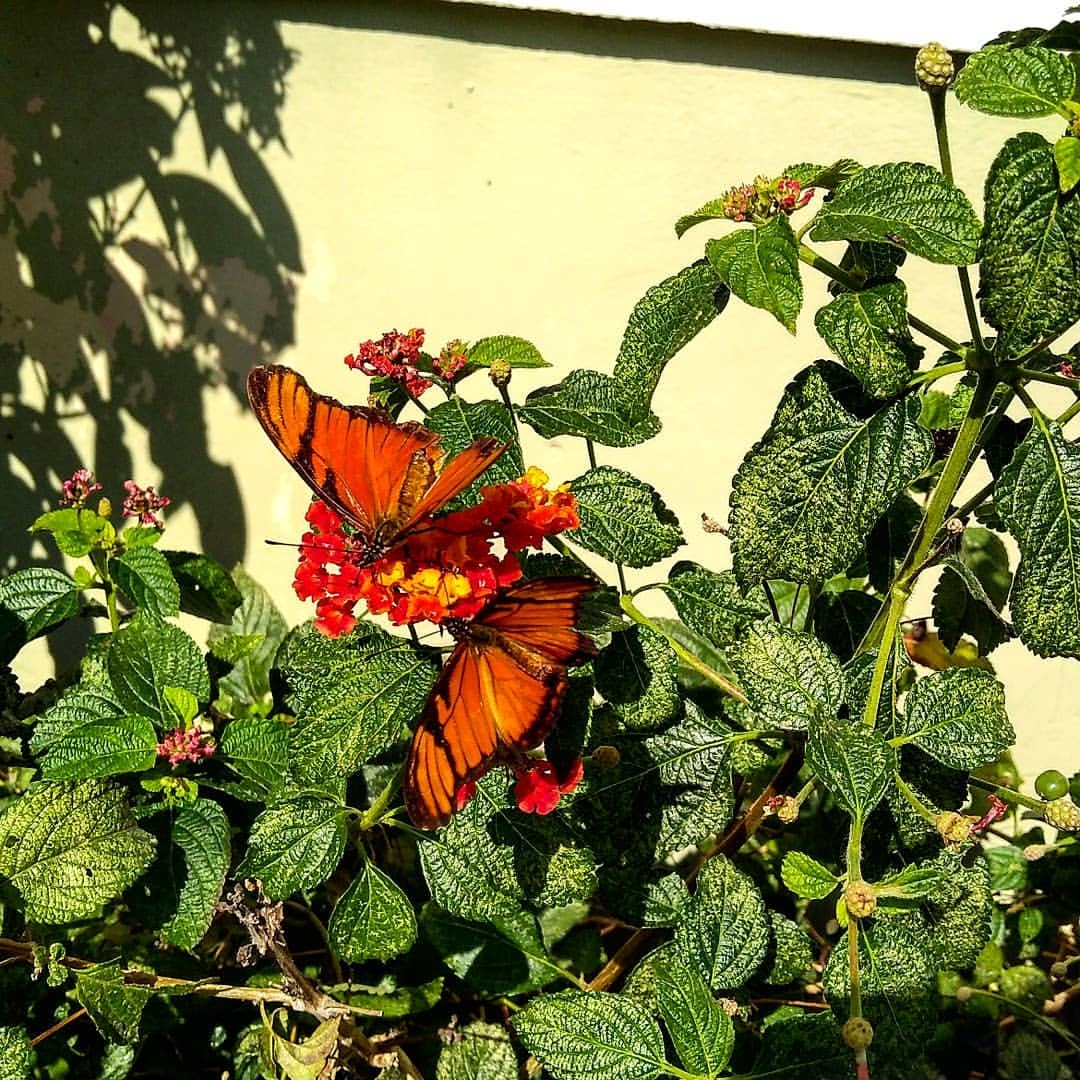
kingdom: Animalia
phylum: Arthropoda
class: Insecta
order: Lepidoptera
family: Nymphalidae
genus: Dione
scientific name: Dione juno
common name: Juno silverspot
